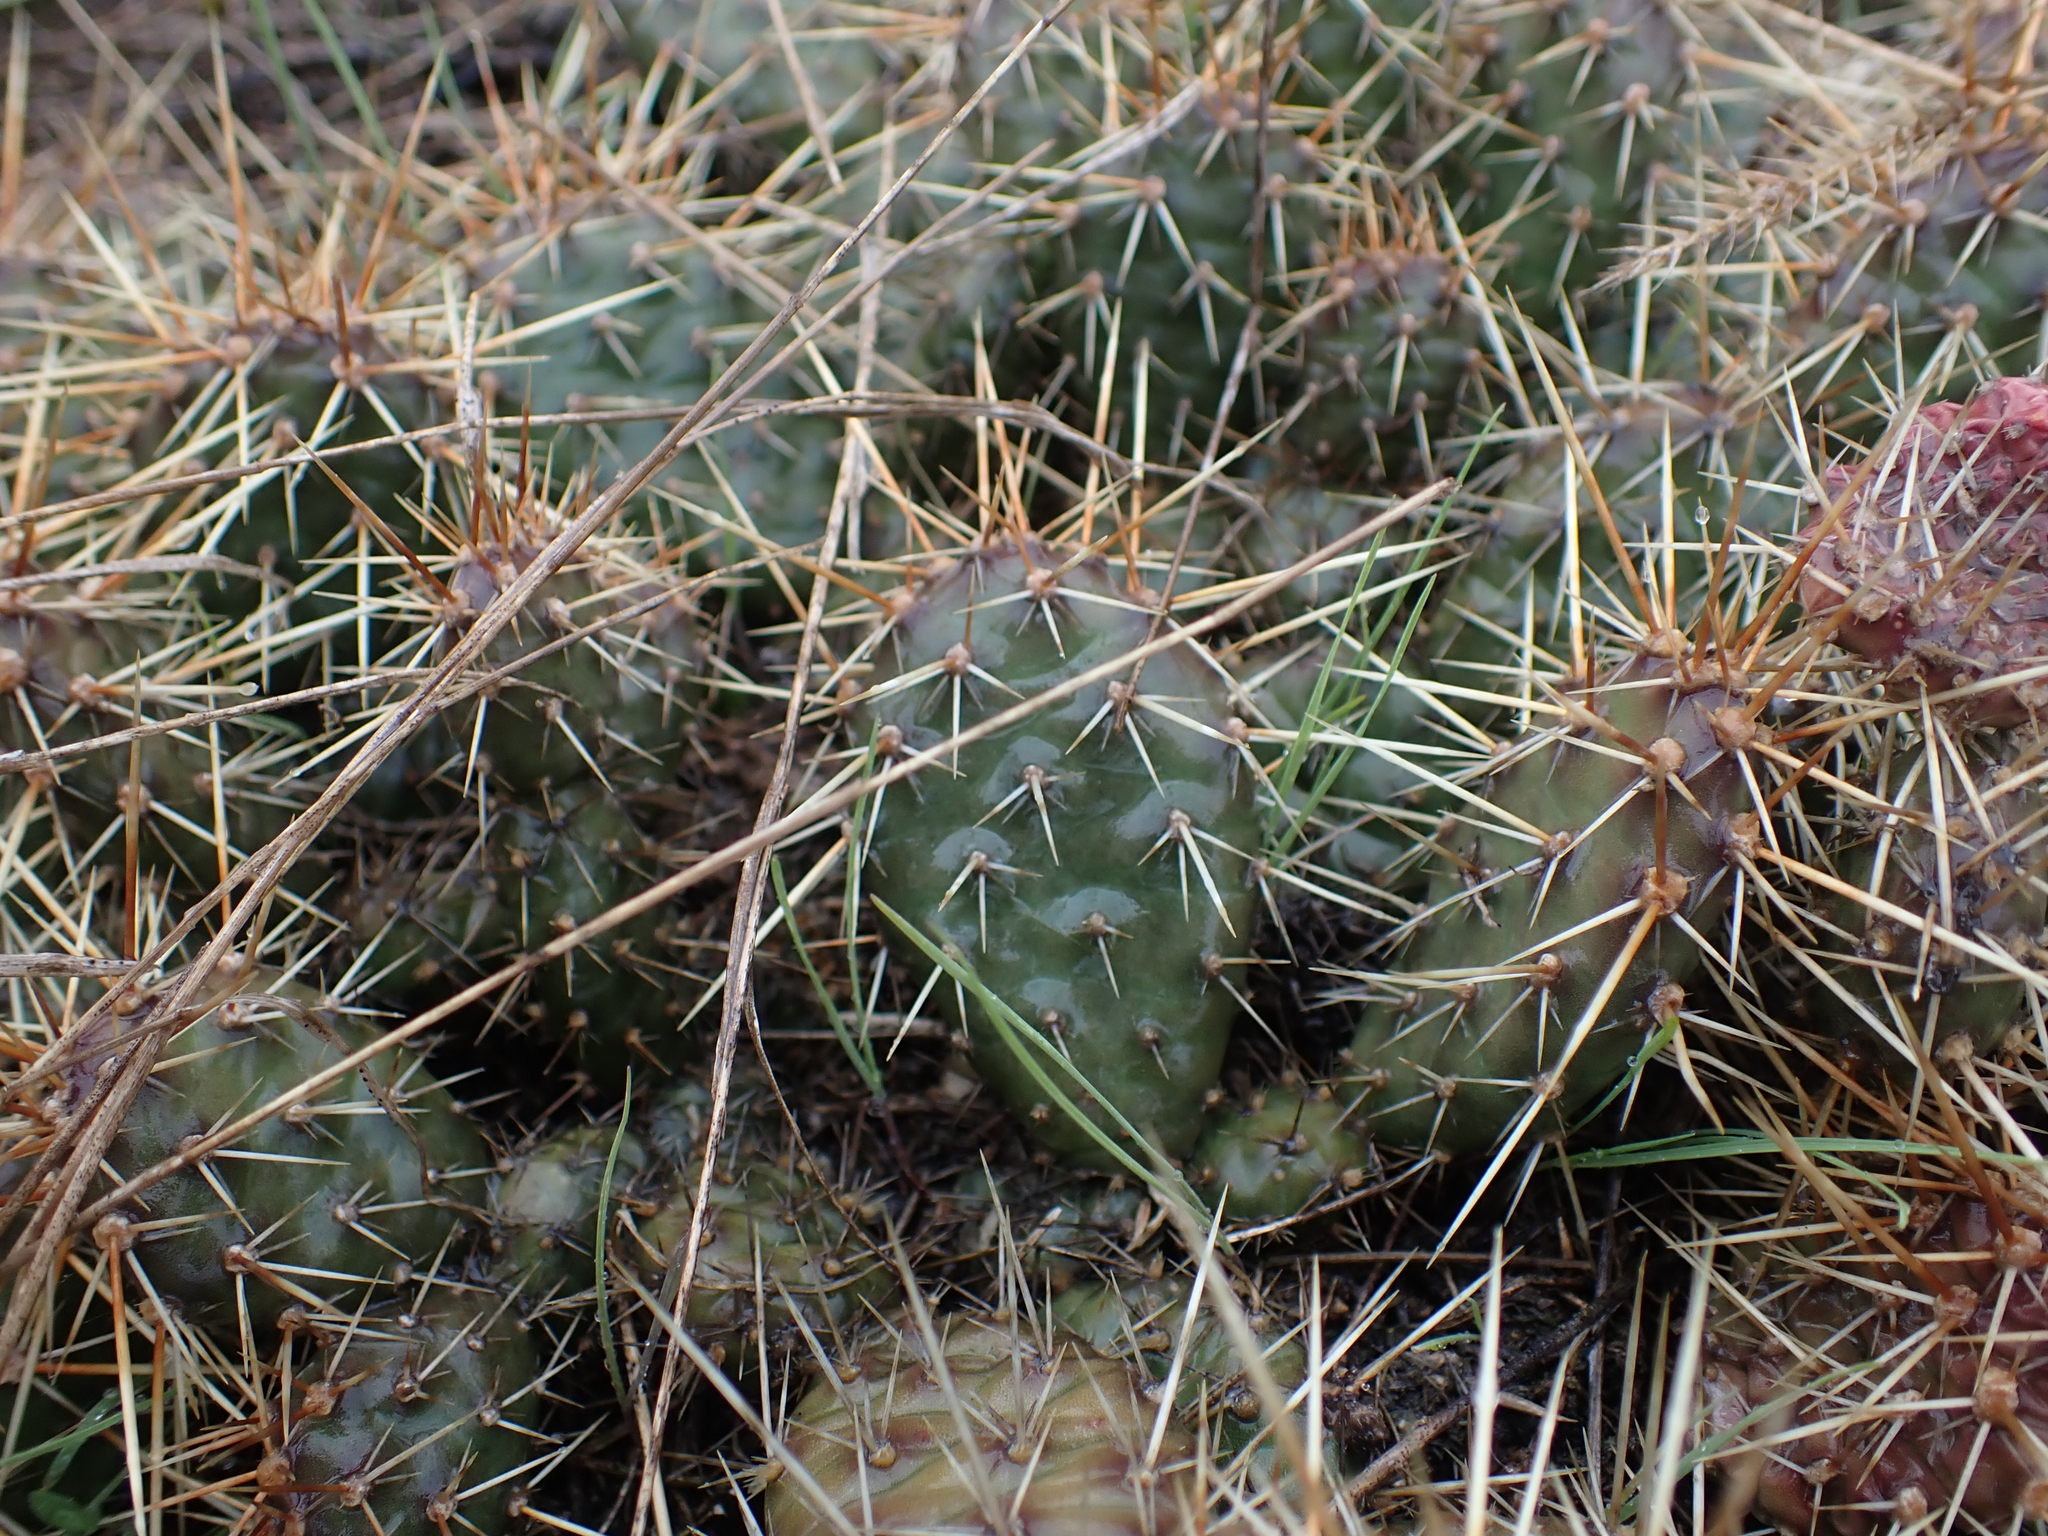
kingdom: Plantae
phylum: Tracheophyta
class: Magnoliopsida
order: Caryophyllales
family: Cactaceae
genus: Opuntia
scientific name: Opuntia fragilis
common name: Brittle cactus
